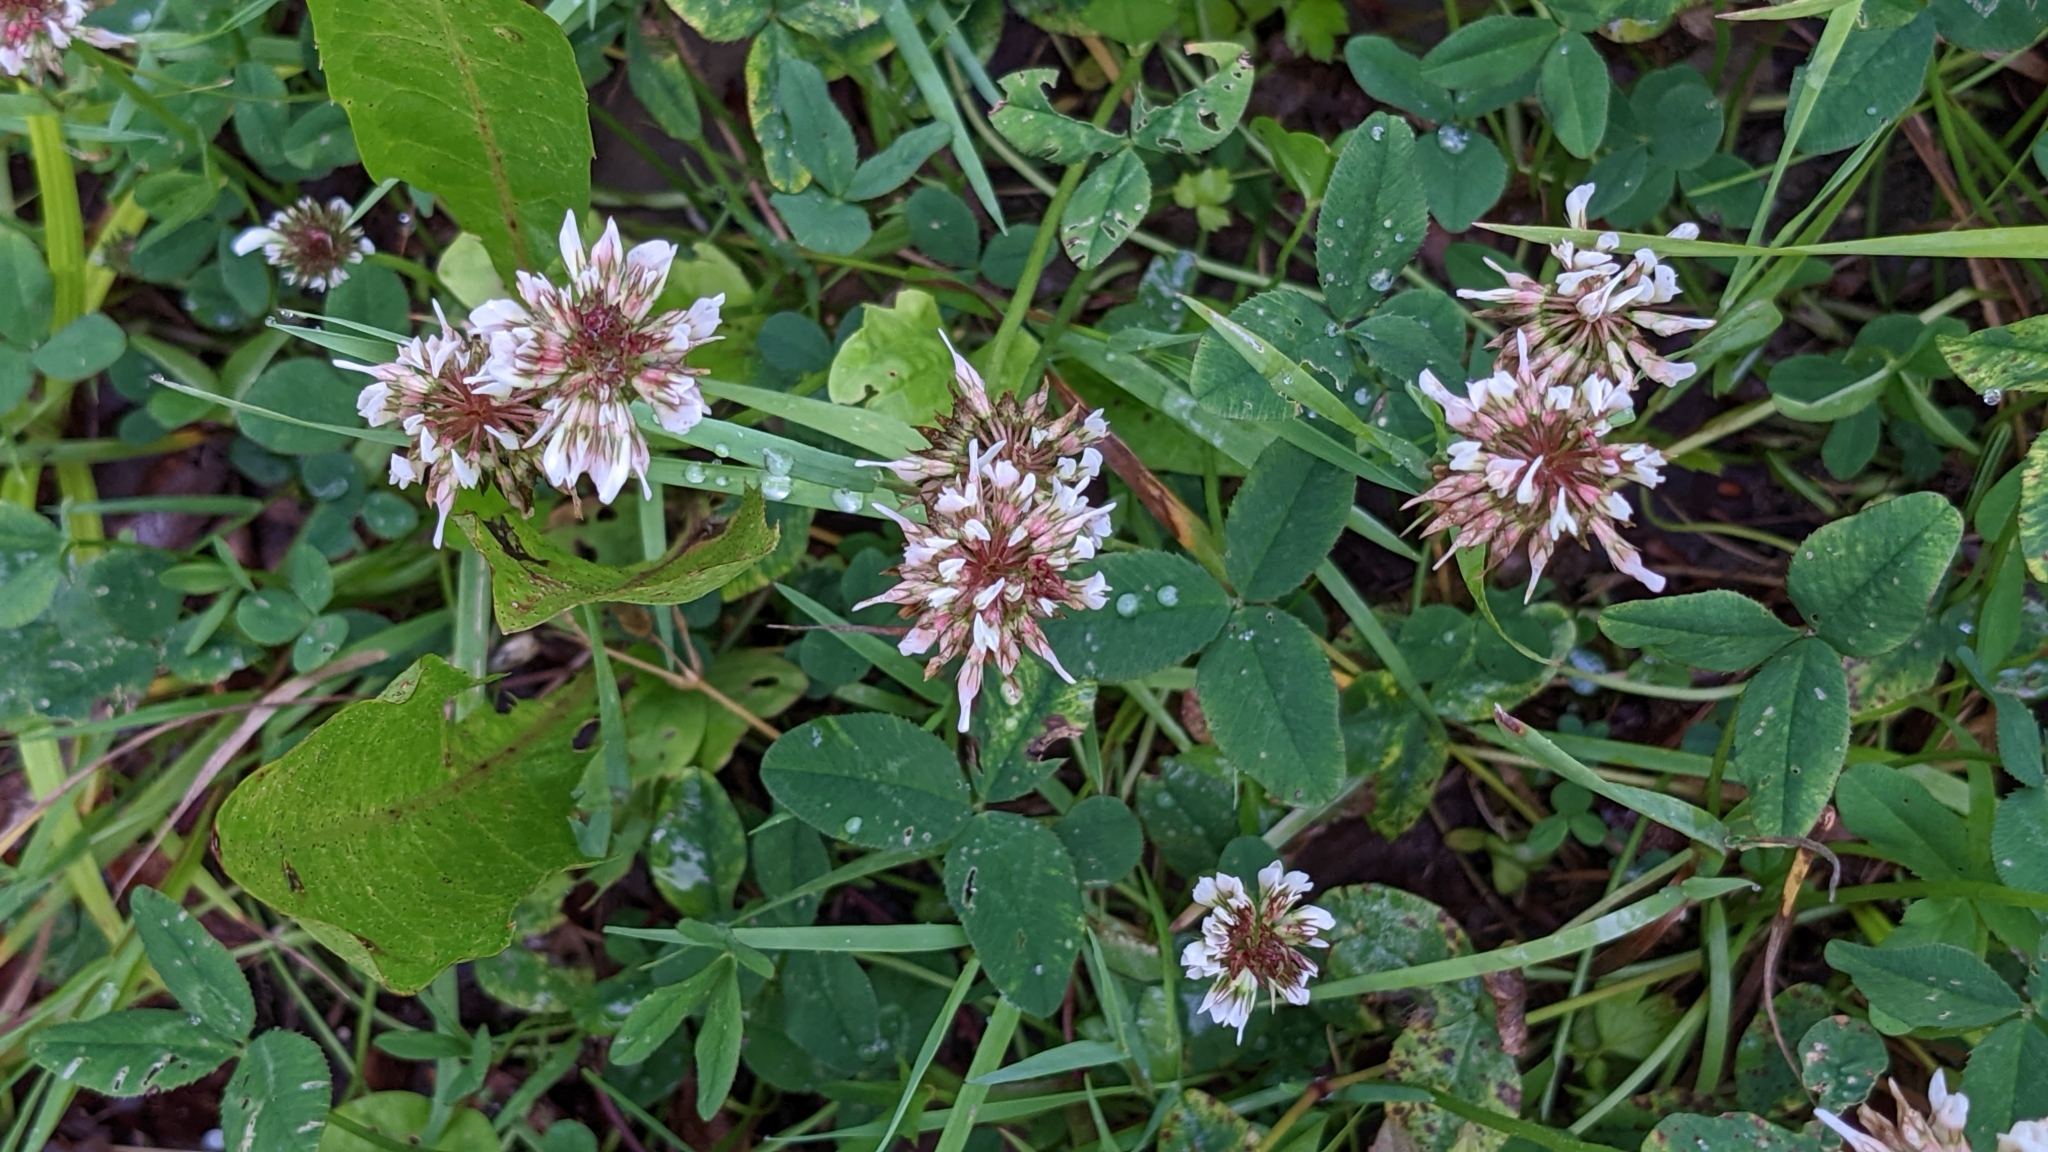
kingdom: Plantae
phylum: Tracheophyta
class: Magnoliopsida
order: Fabales
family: Fabaceae
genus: Trifolium
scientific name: Trifolium repens
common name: White clover
